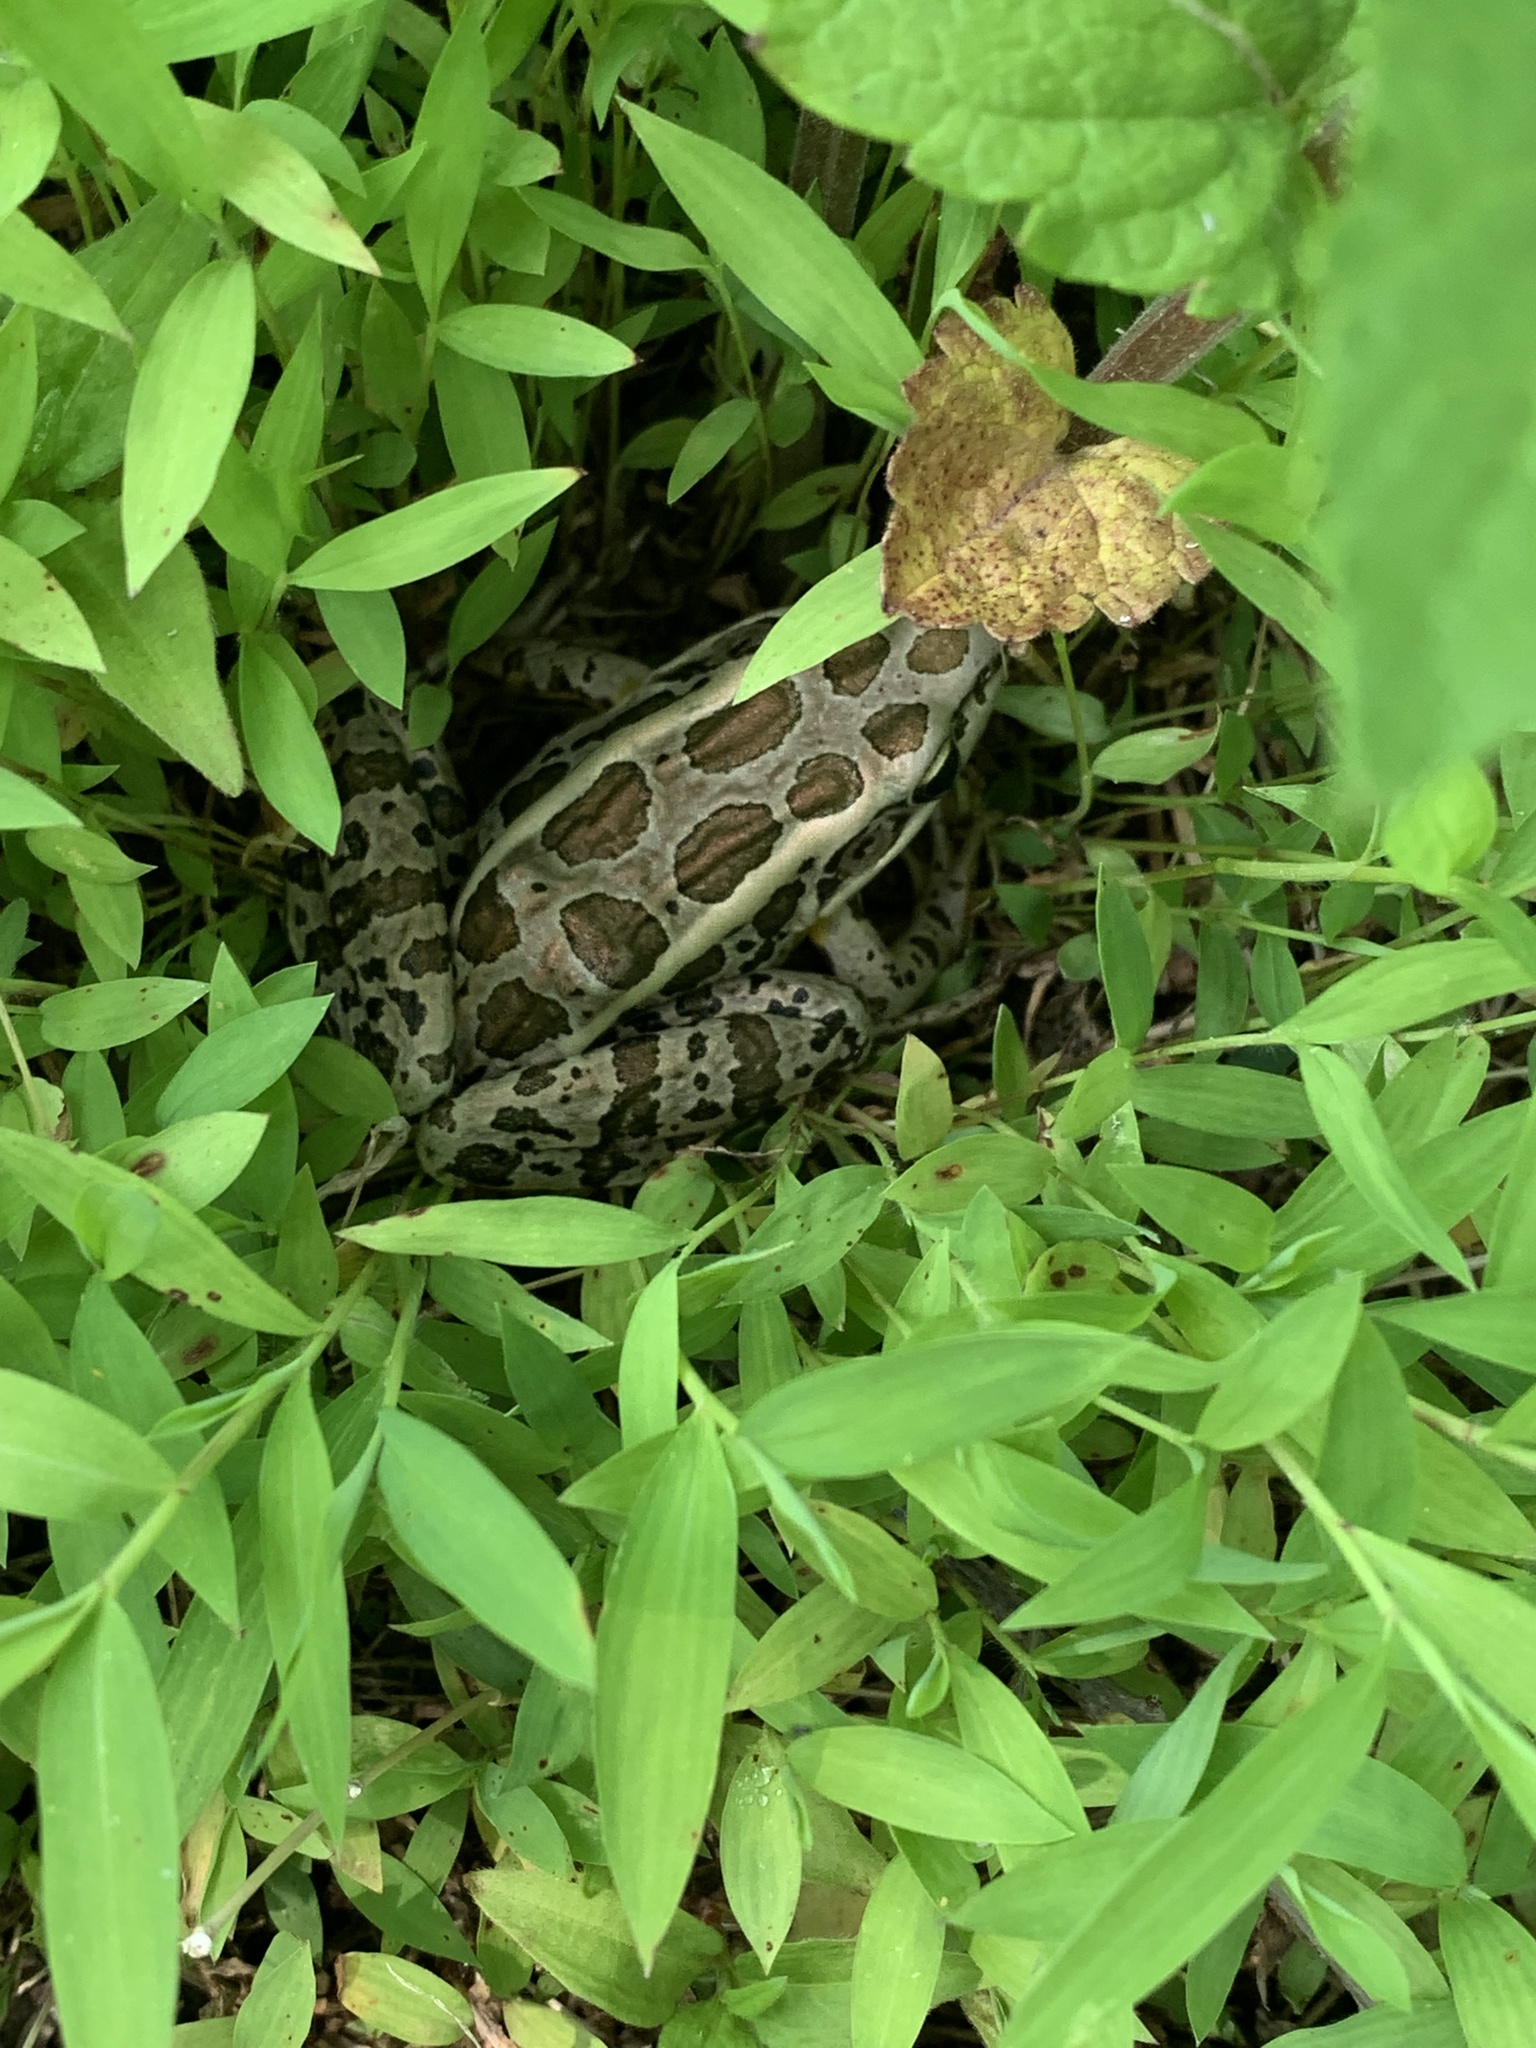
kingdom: Animalia
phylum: Chordata
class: Amphibia
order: Anura
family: Ranidae
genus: Lithobates
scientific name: Lithobates palustris
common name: Pickerel frog
